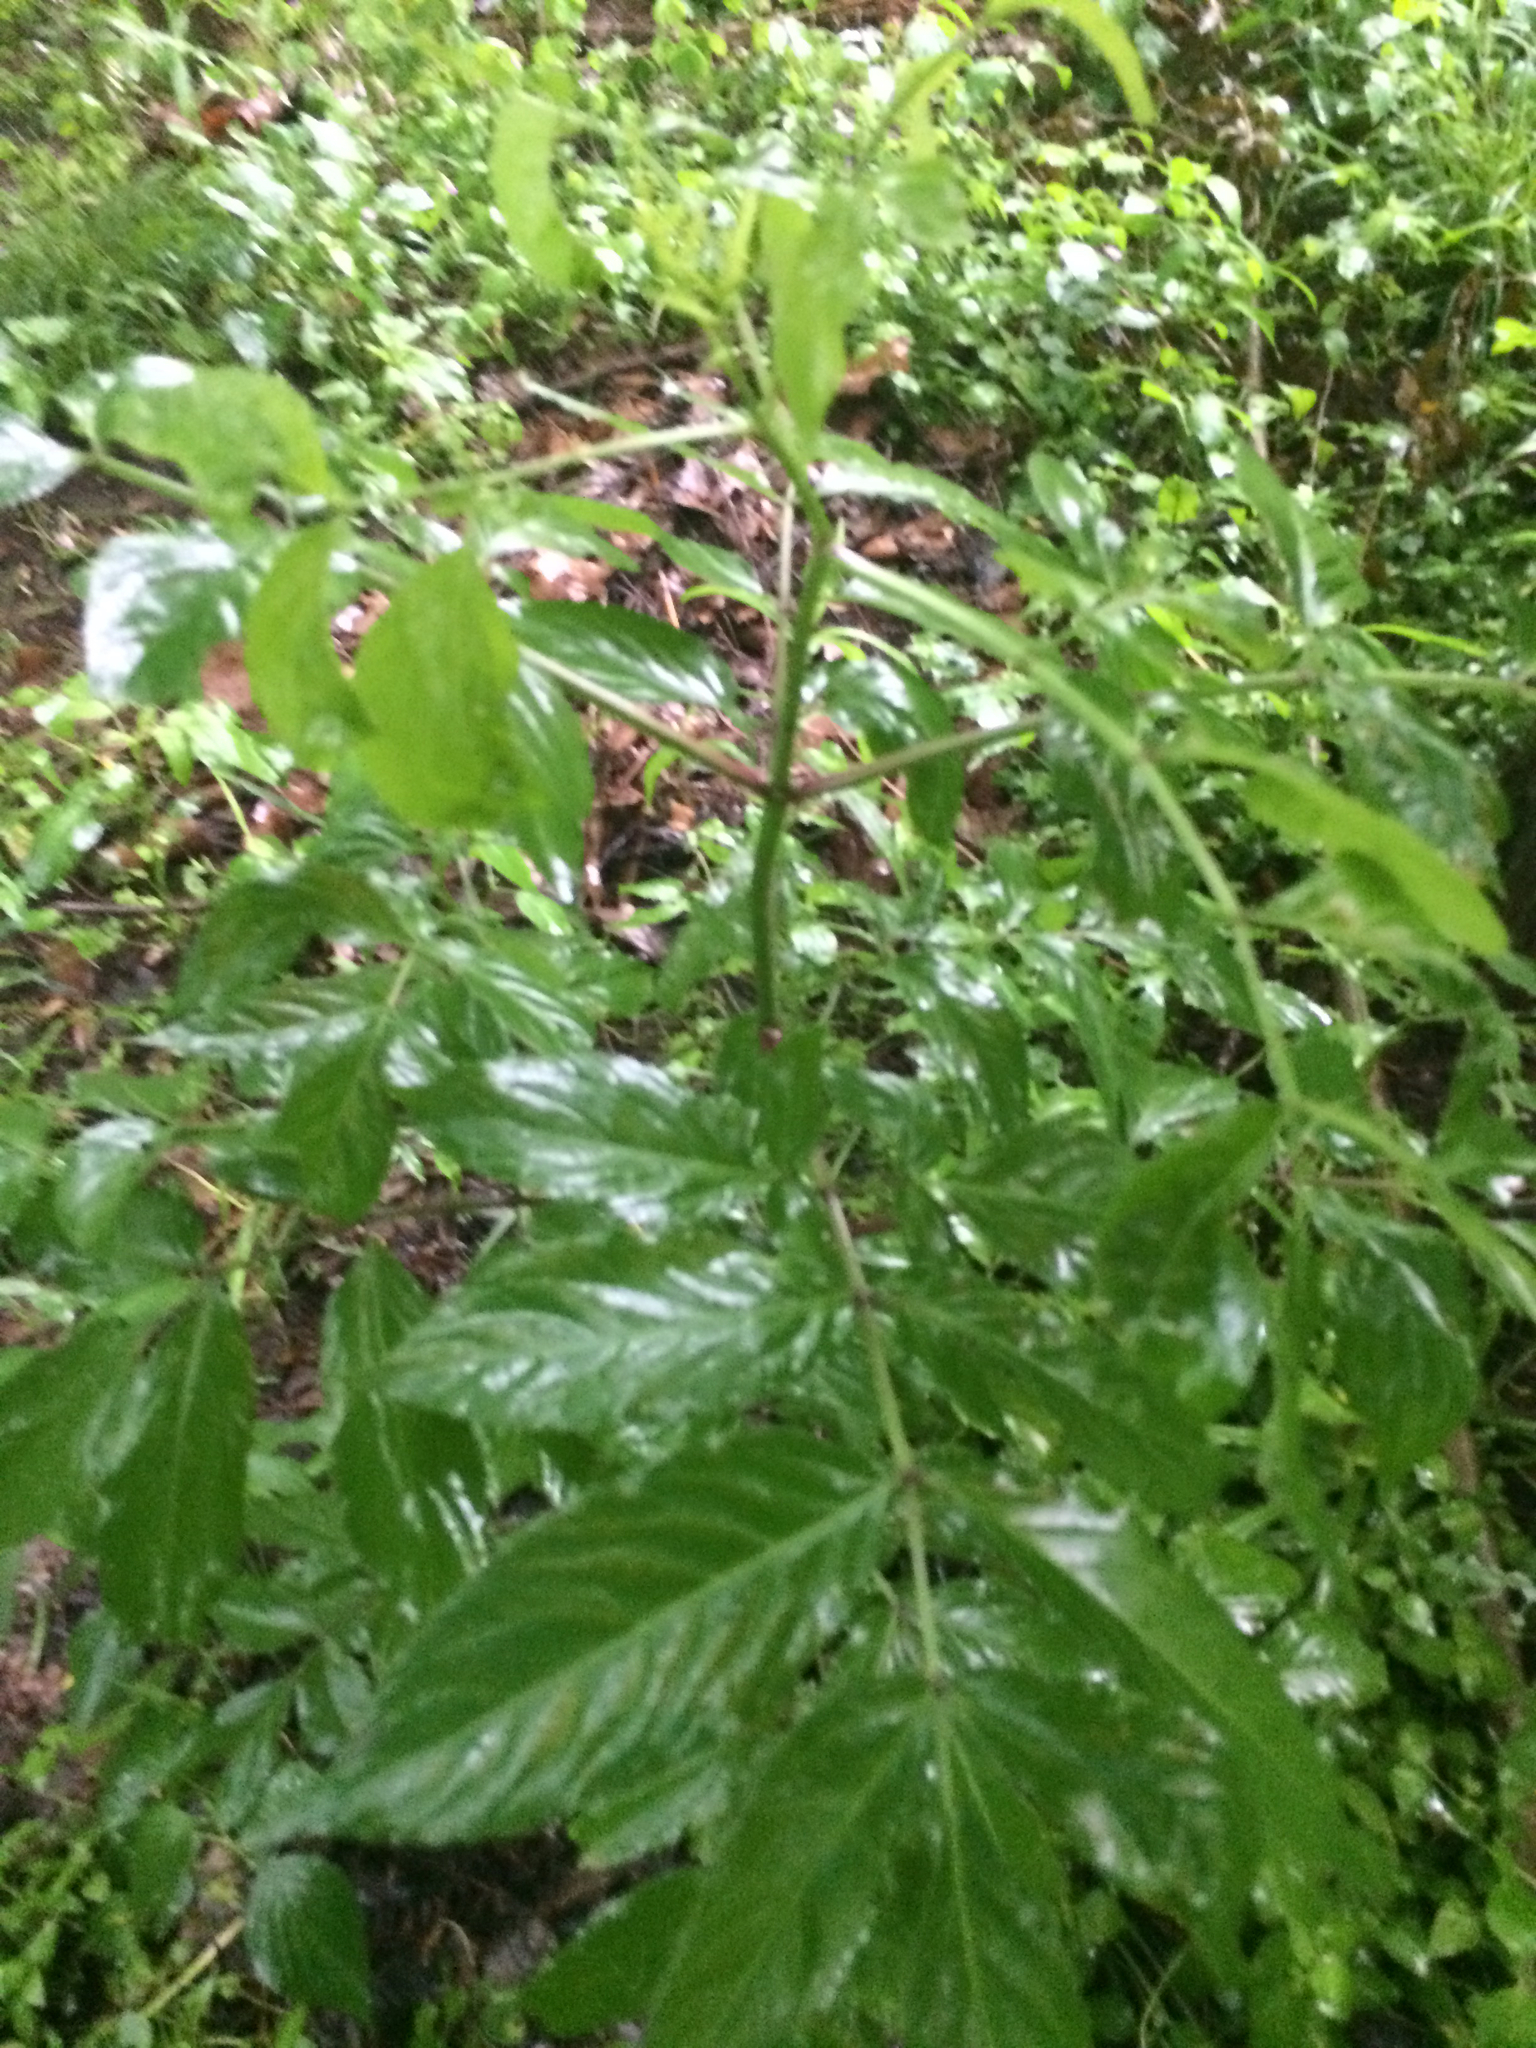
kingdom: Plantae
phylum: Tracheophyta
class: Magnoliopsida
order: Dipsacales
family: Viburnaceae
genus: Sambucus
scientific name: Sambucus canadensis
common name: American elder
